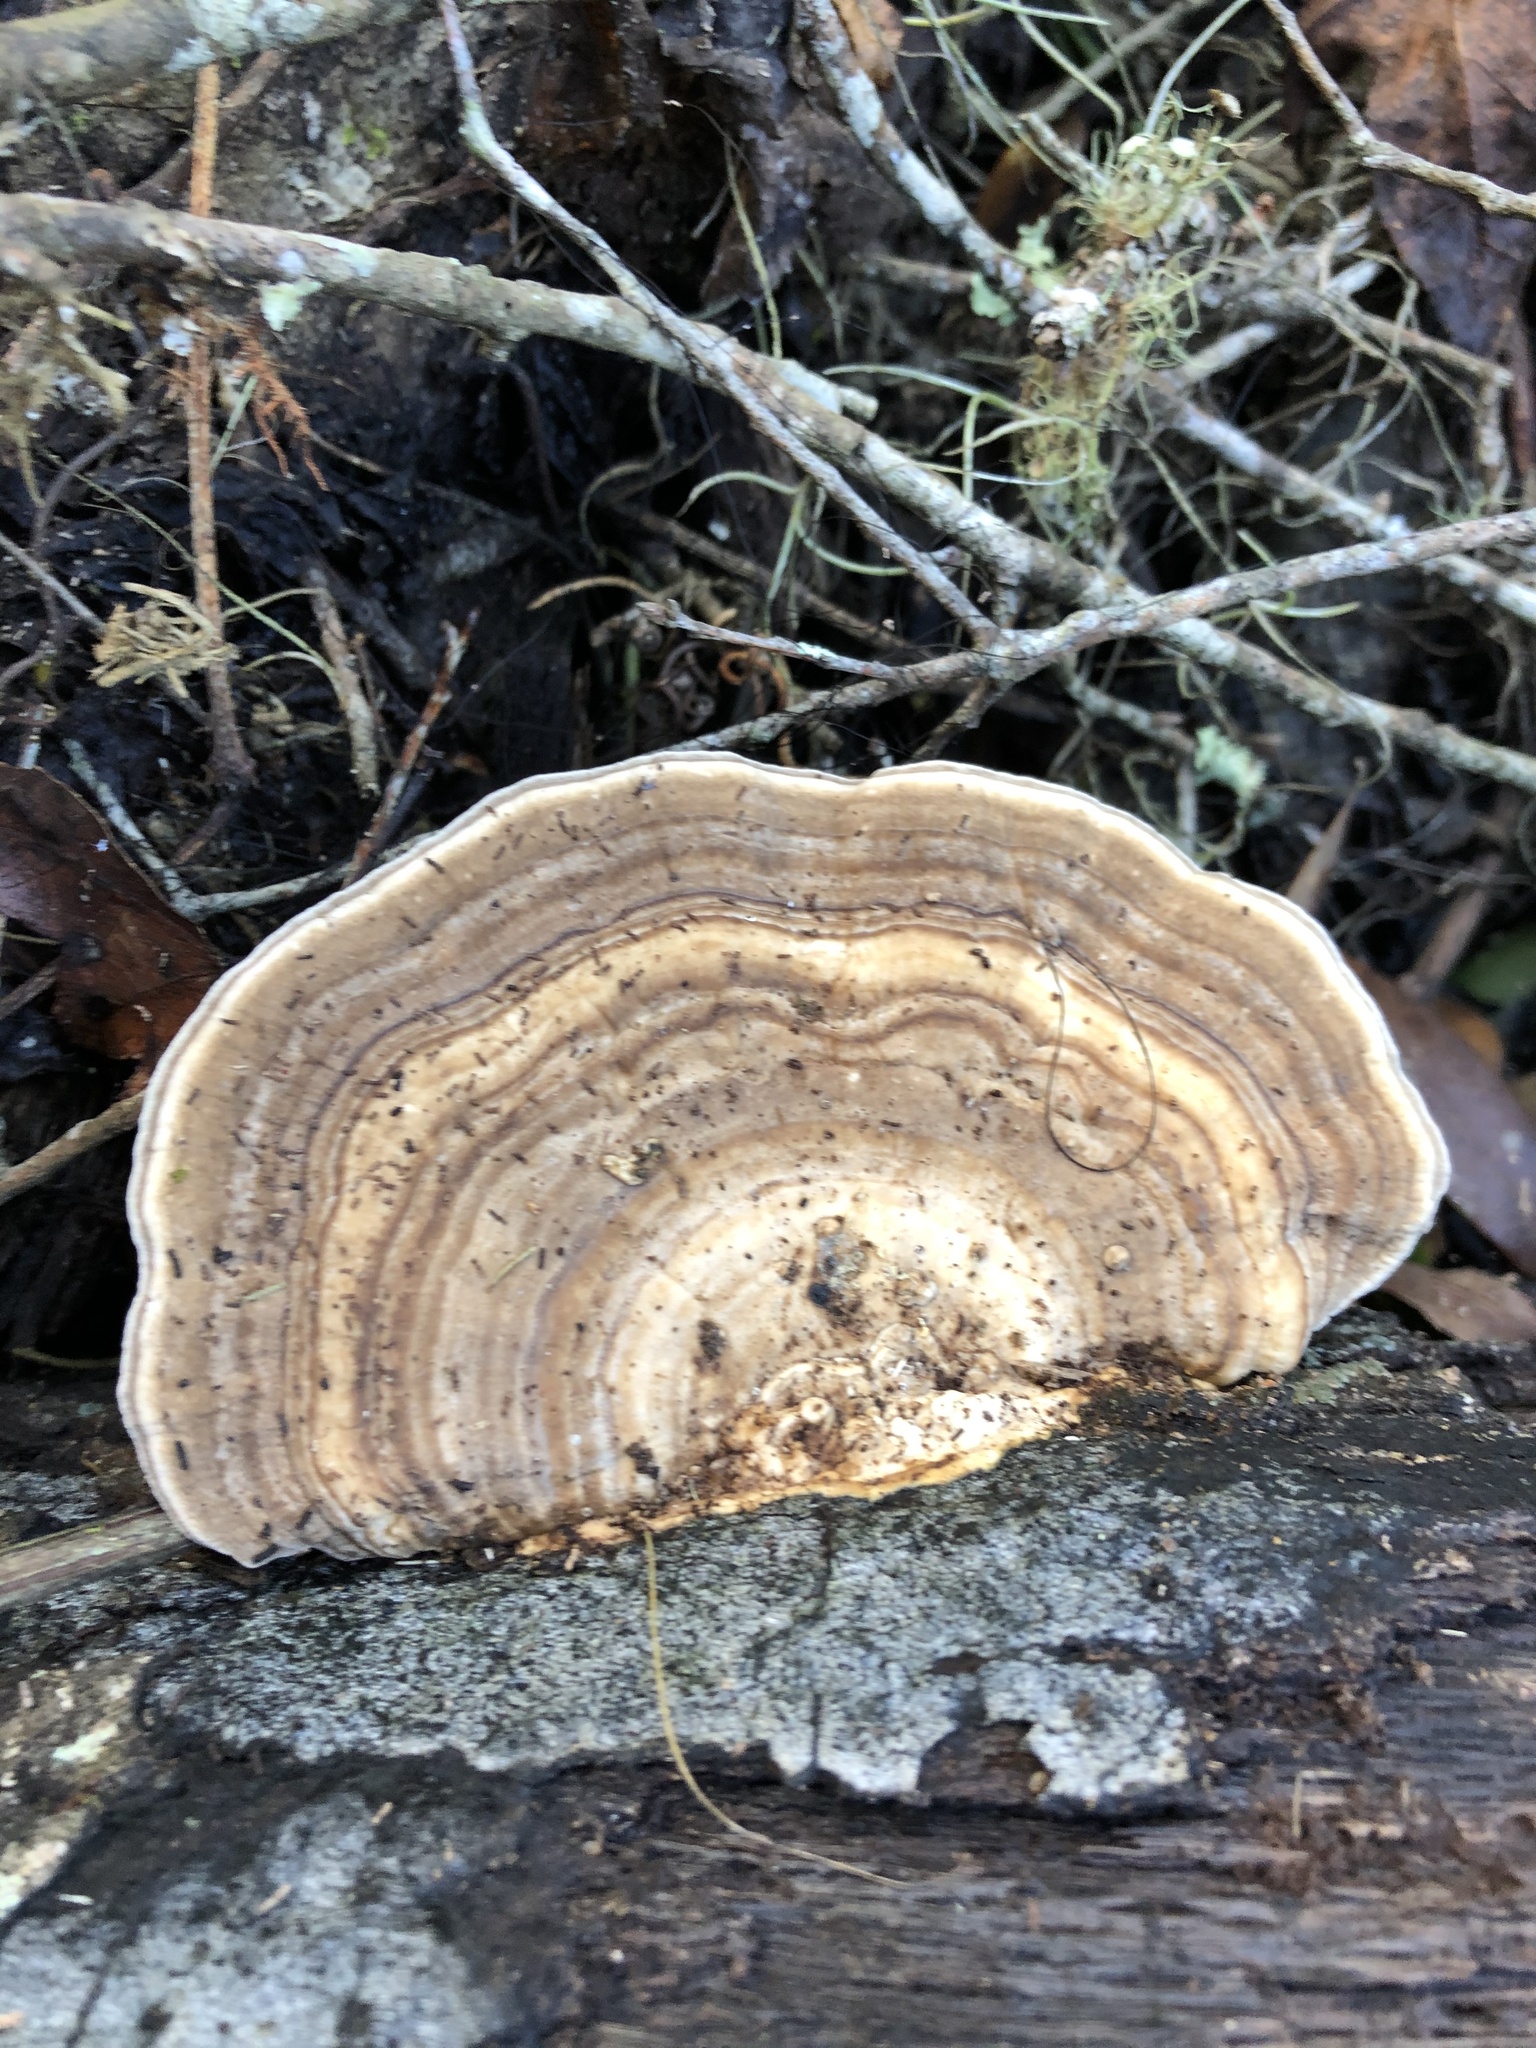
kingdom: Fungi
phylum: Basidiomycota
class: Agaricomycetes
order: Polyporales
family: Polyporaceae
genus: Trametes
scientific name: Trametes lactinea
